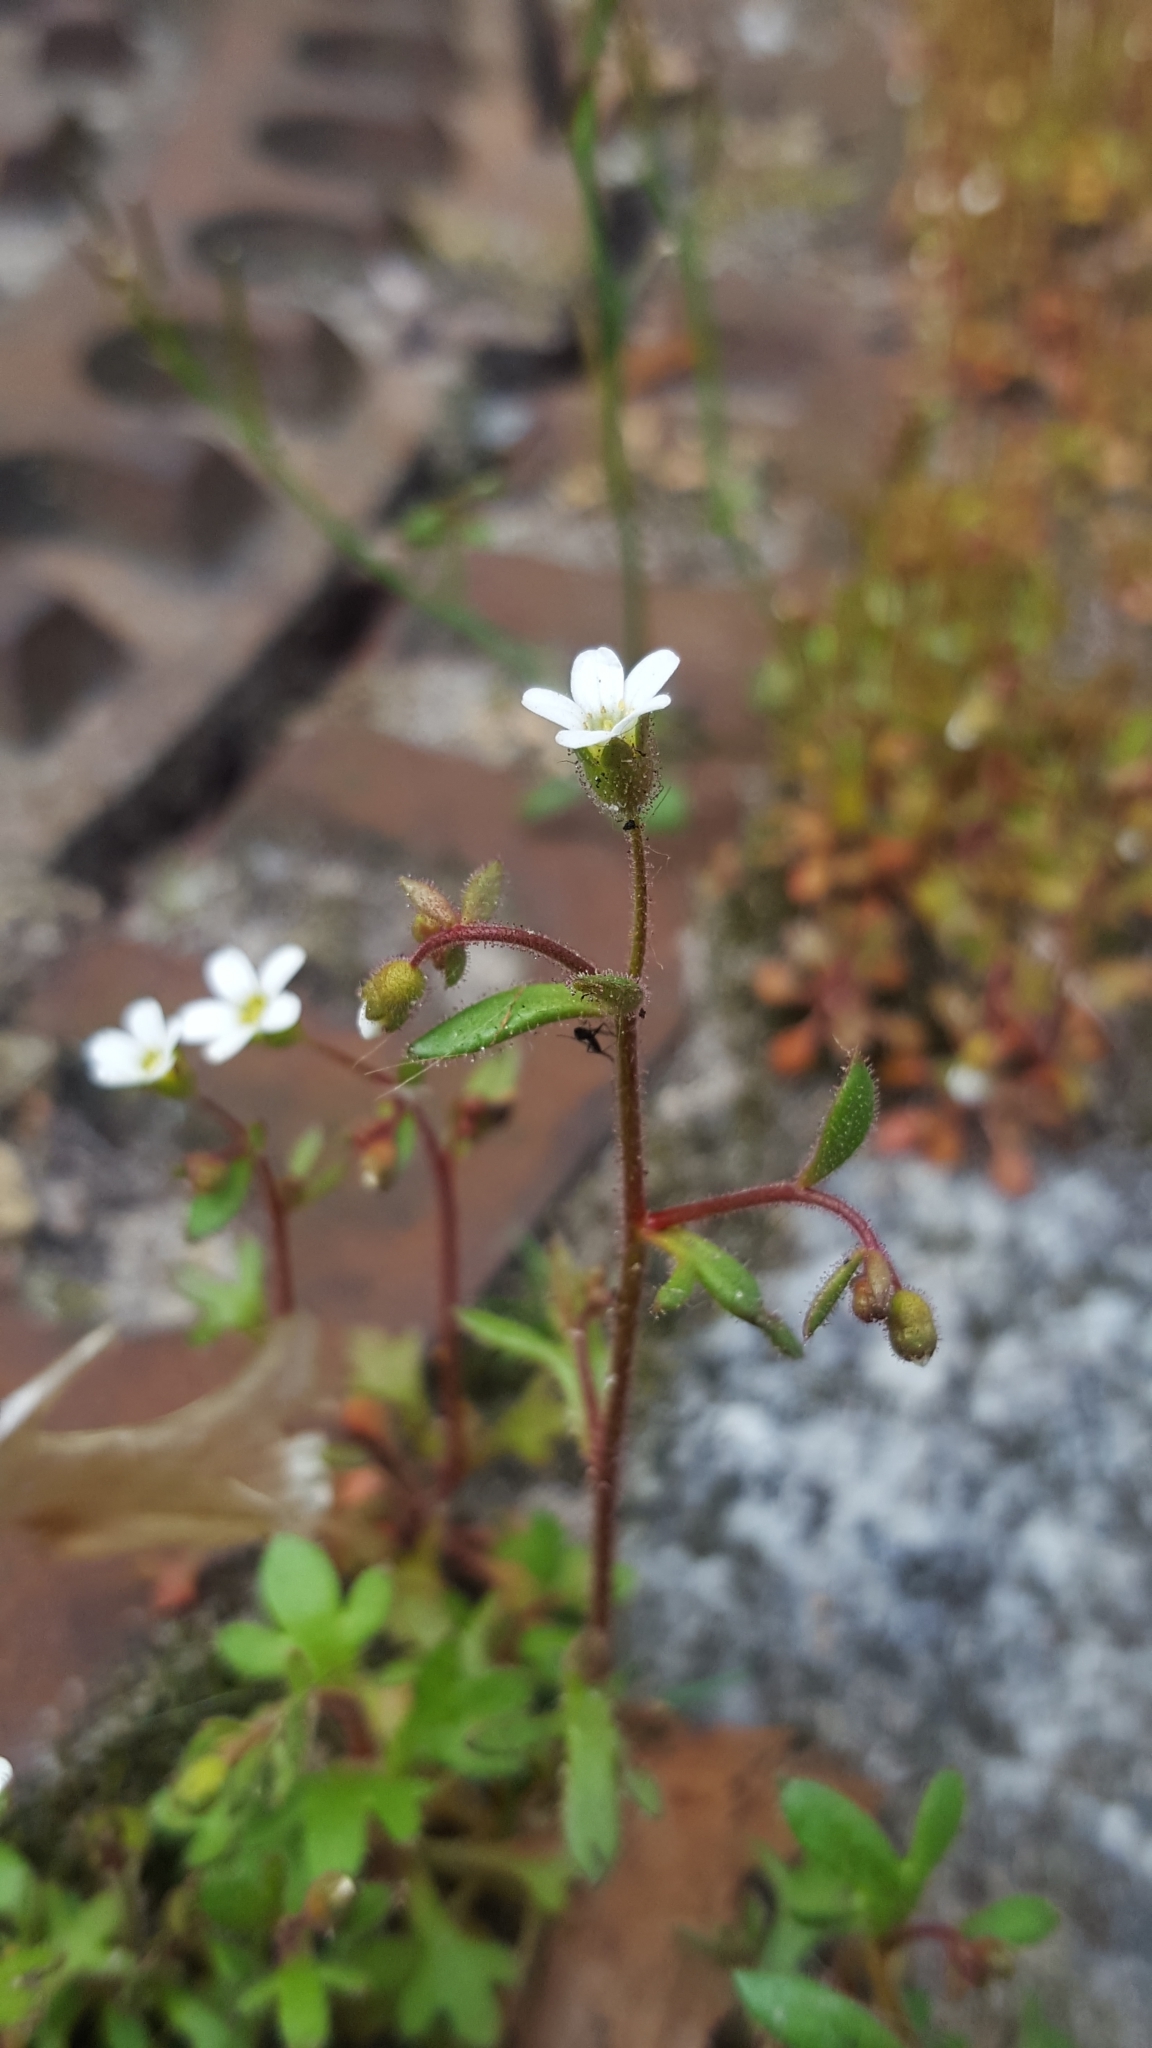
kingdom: Plantae
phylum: Tracheophyta
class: Magnoliopsida
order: Saxifragales
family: Saxifragaceae
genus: Saxifraga
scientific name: Saxifraga tridactylites
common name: Rue-leaved saxifrage
